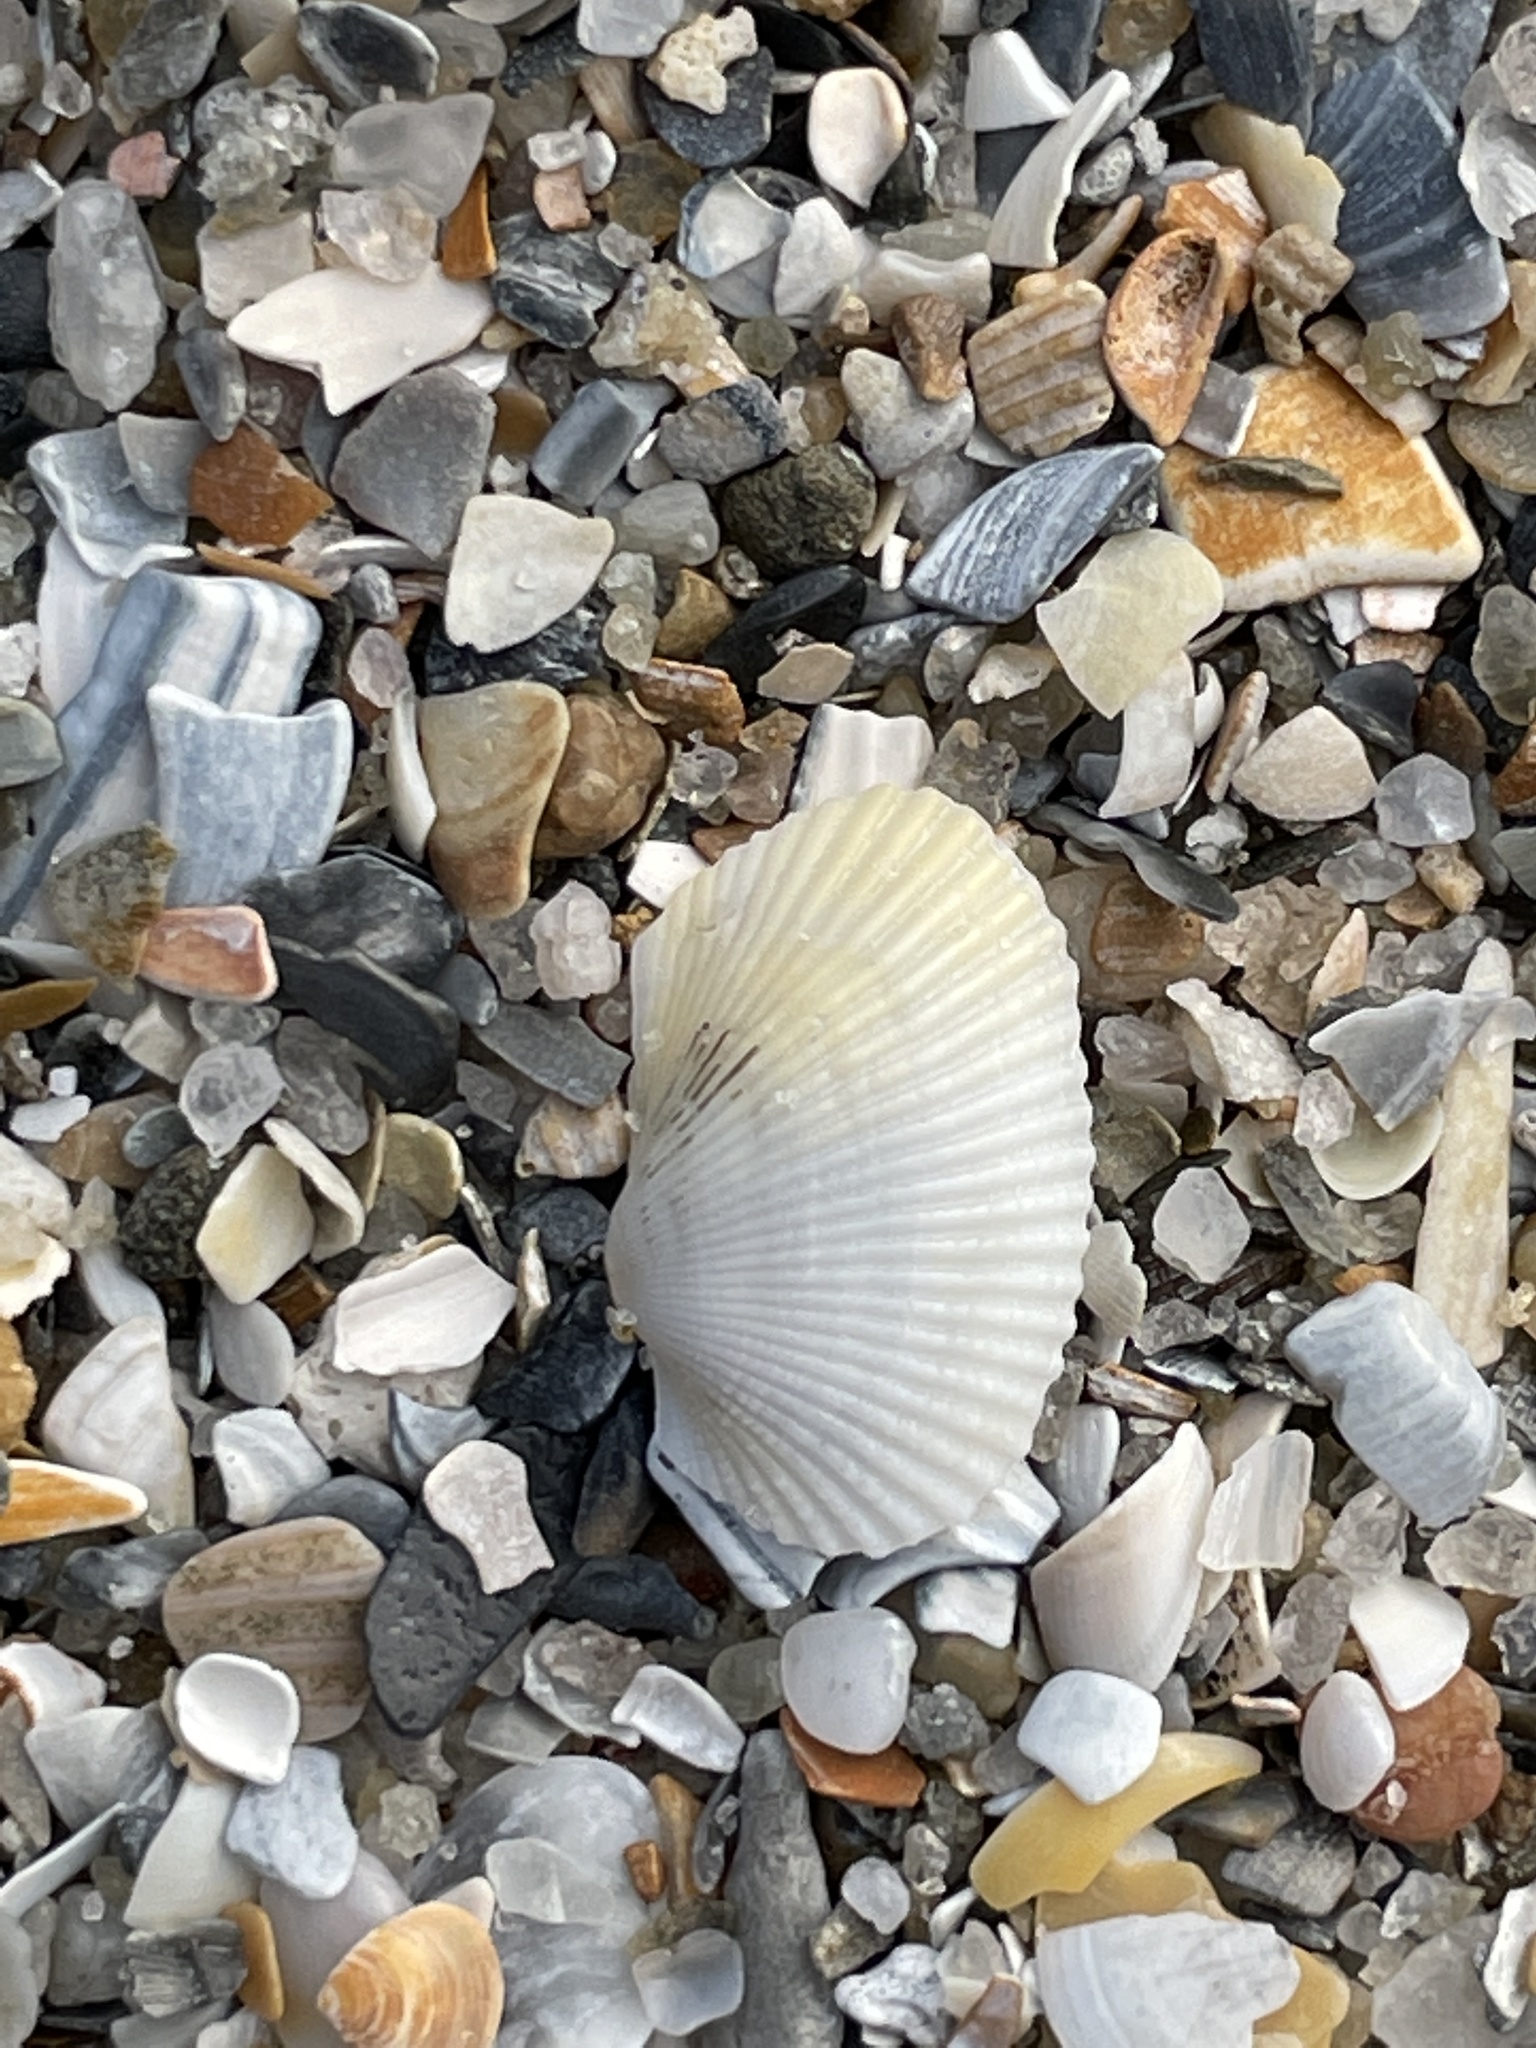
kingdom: Animalia
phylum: Mollusca
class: Bivalvia
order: Arcida
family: Arcidae
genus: Anadara
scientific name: Anadara transversa
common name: Transverse ark
